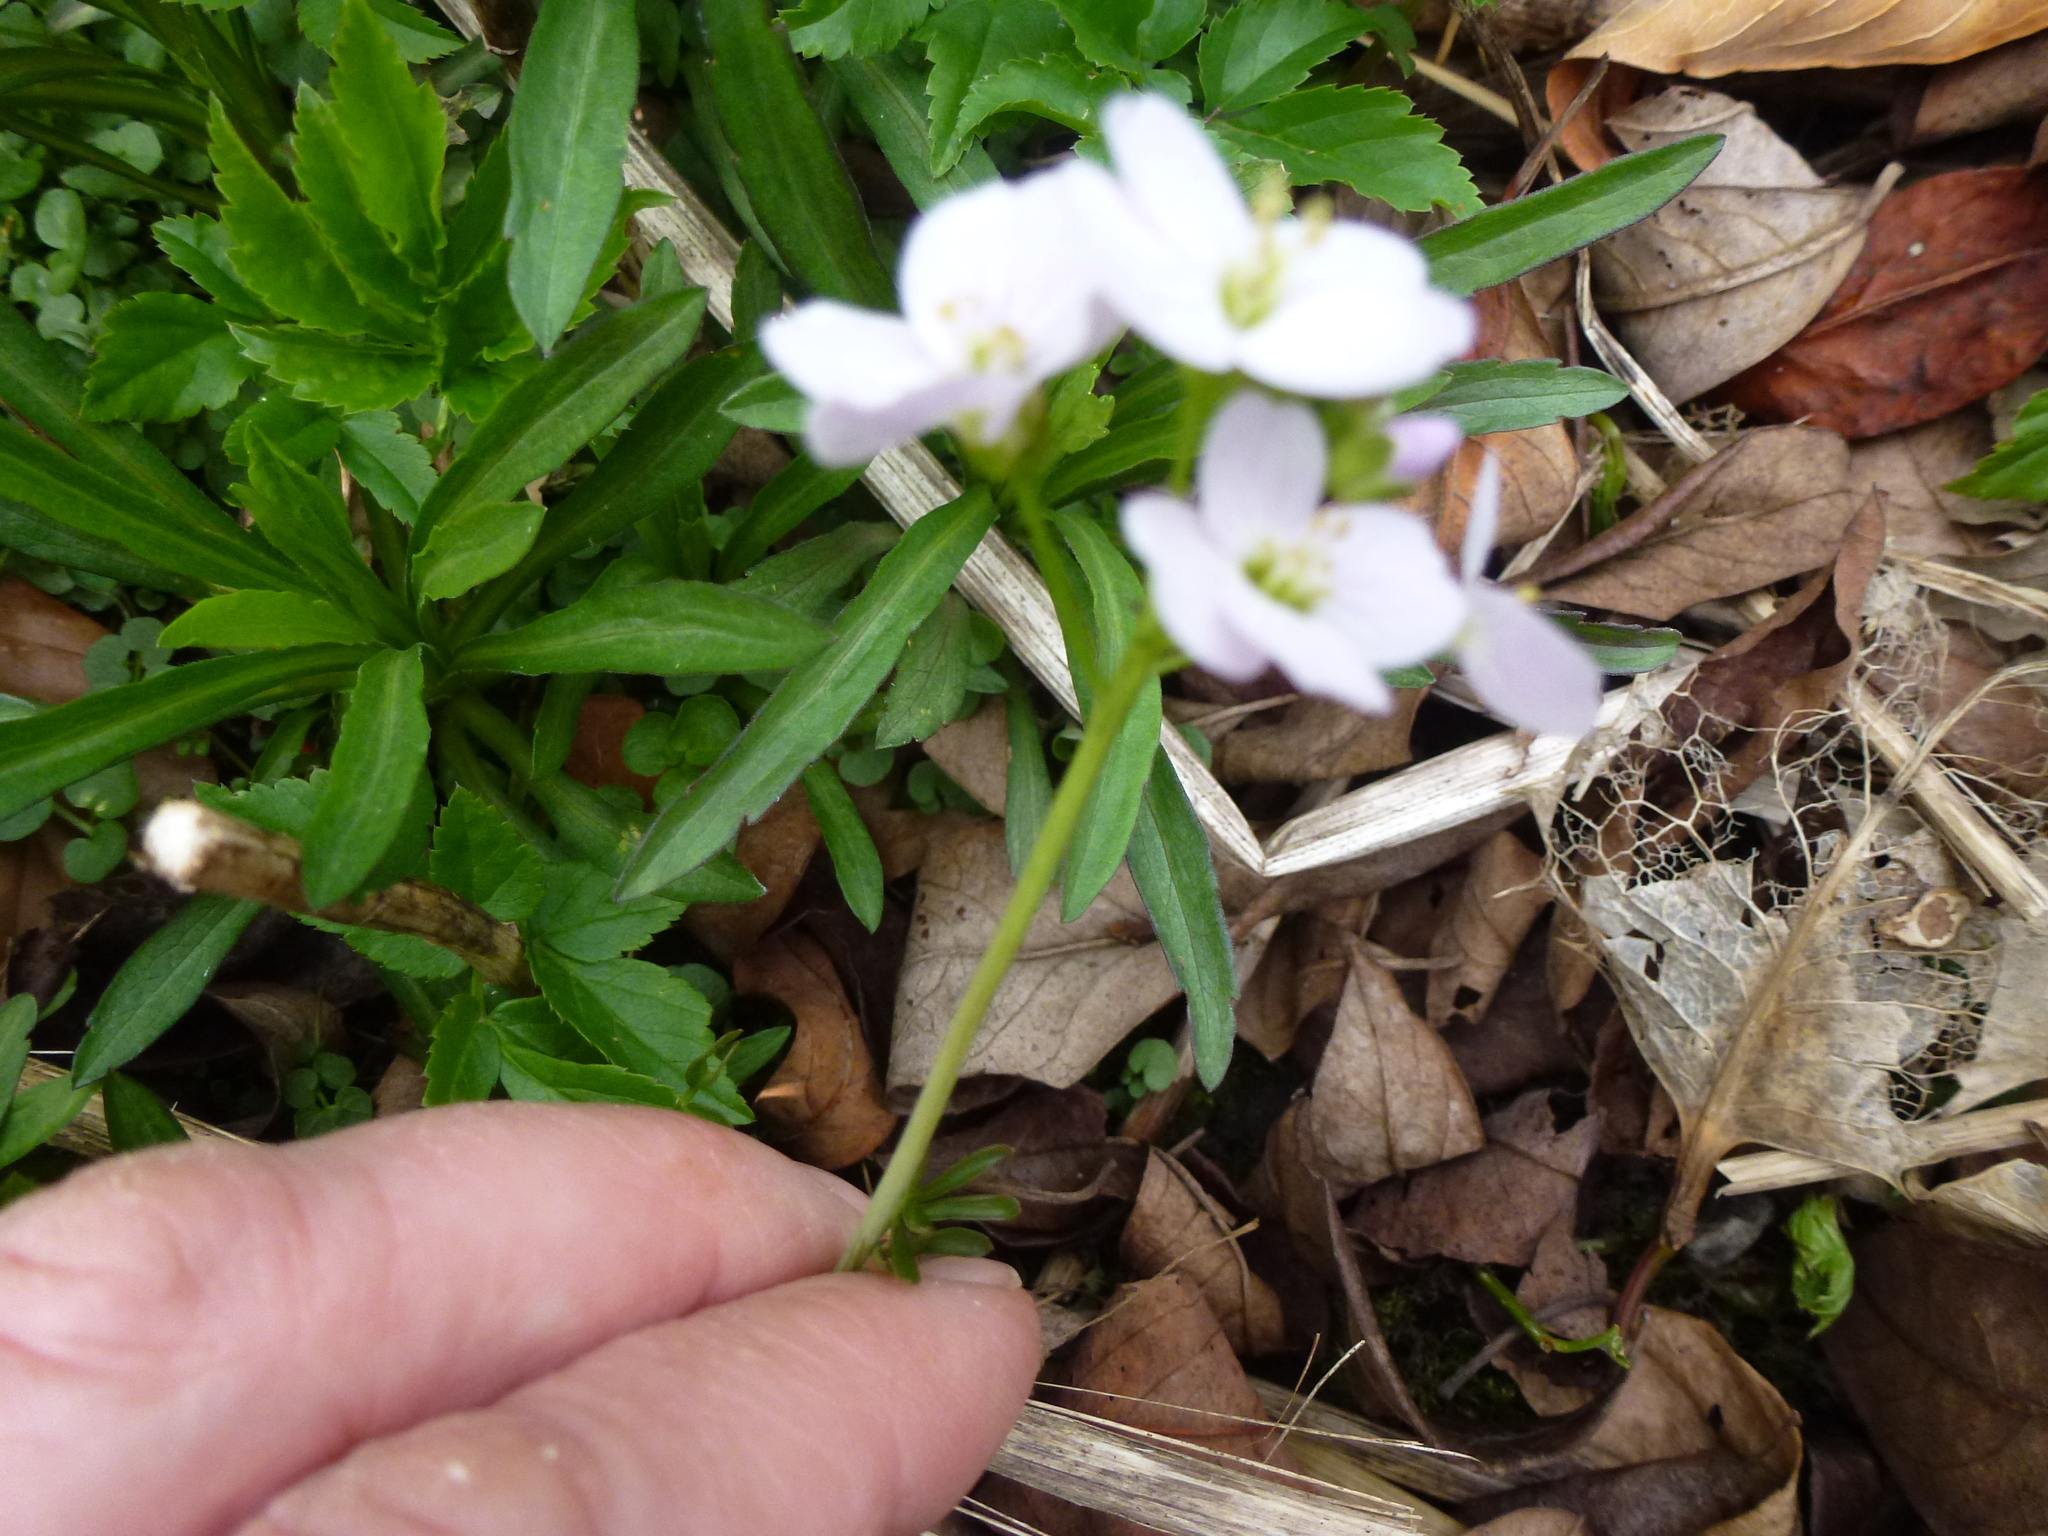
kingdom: Plantae
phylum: Tracheophyta
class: Magnoliopsida
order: Brassicales
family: Brassicaceae
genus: Cardamine
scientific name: Cardamine pratensis
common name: Cuckoo flower
